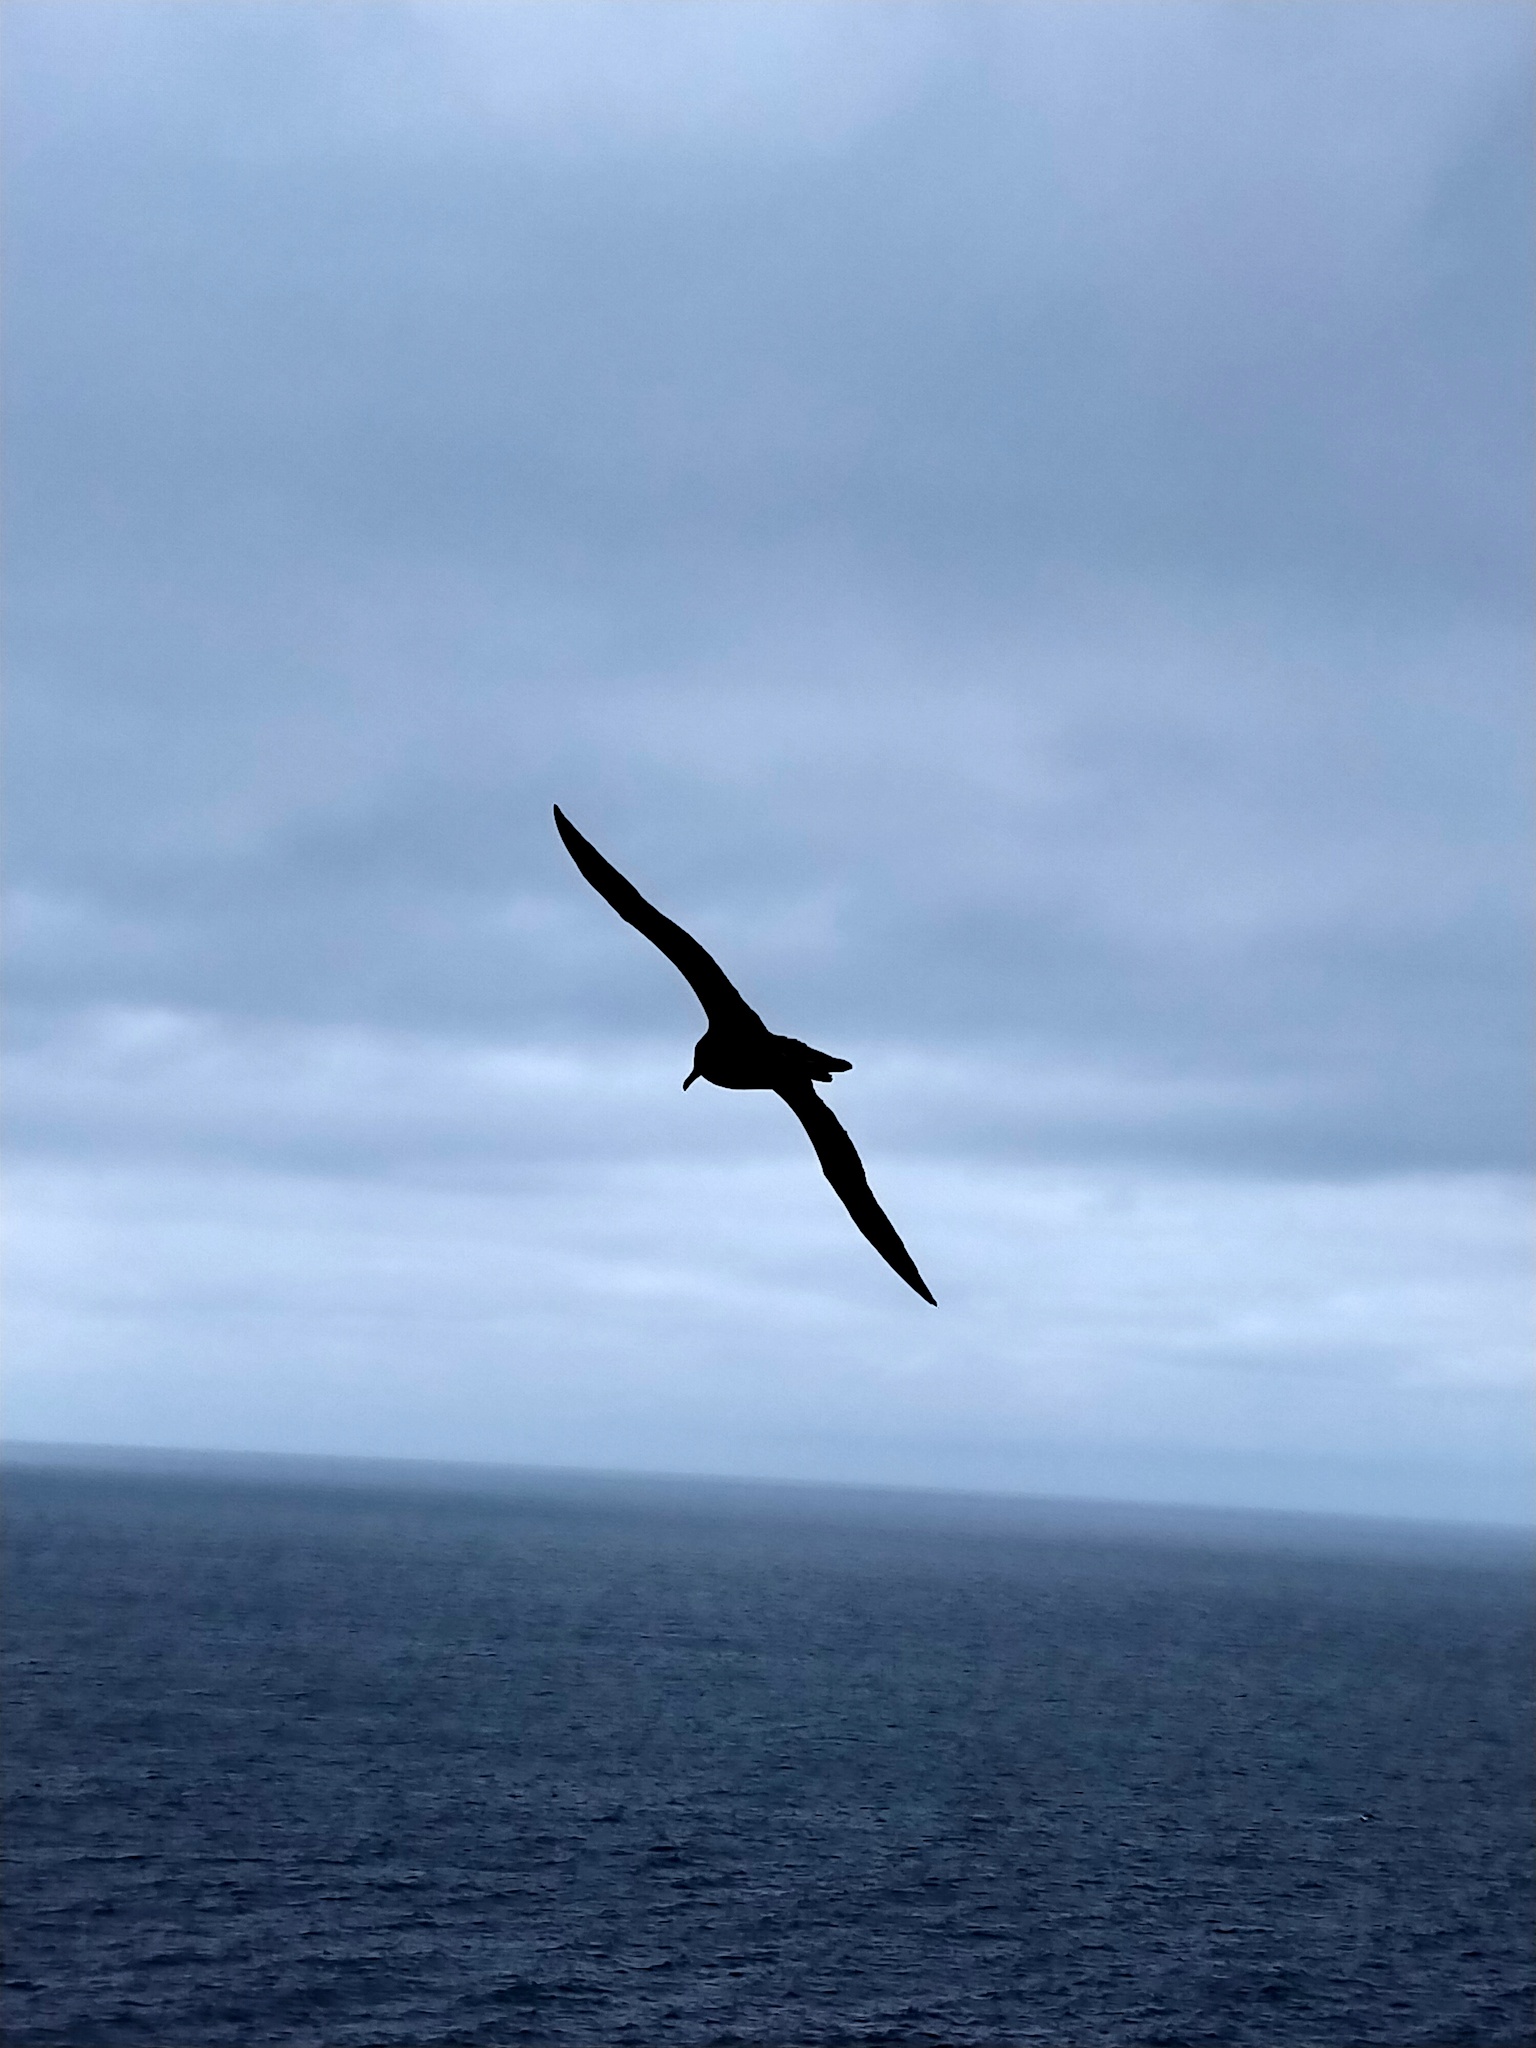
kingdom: Animalia
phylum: Chordata
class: Aves
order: Procellariiformes
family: Diomedeidae
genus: Phoebetria
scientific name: Phoebetria palpebrata
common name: Light-mantled albatross
